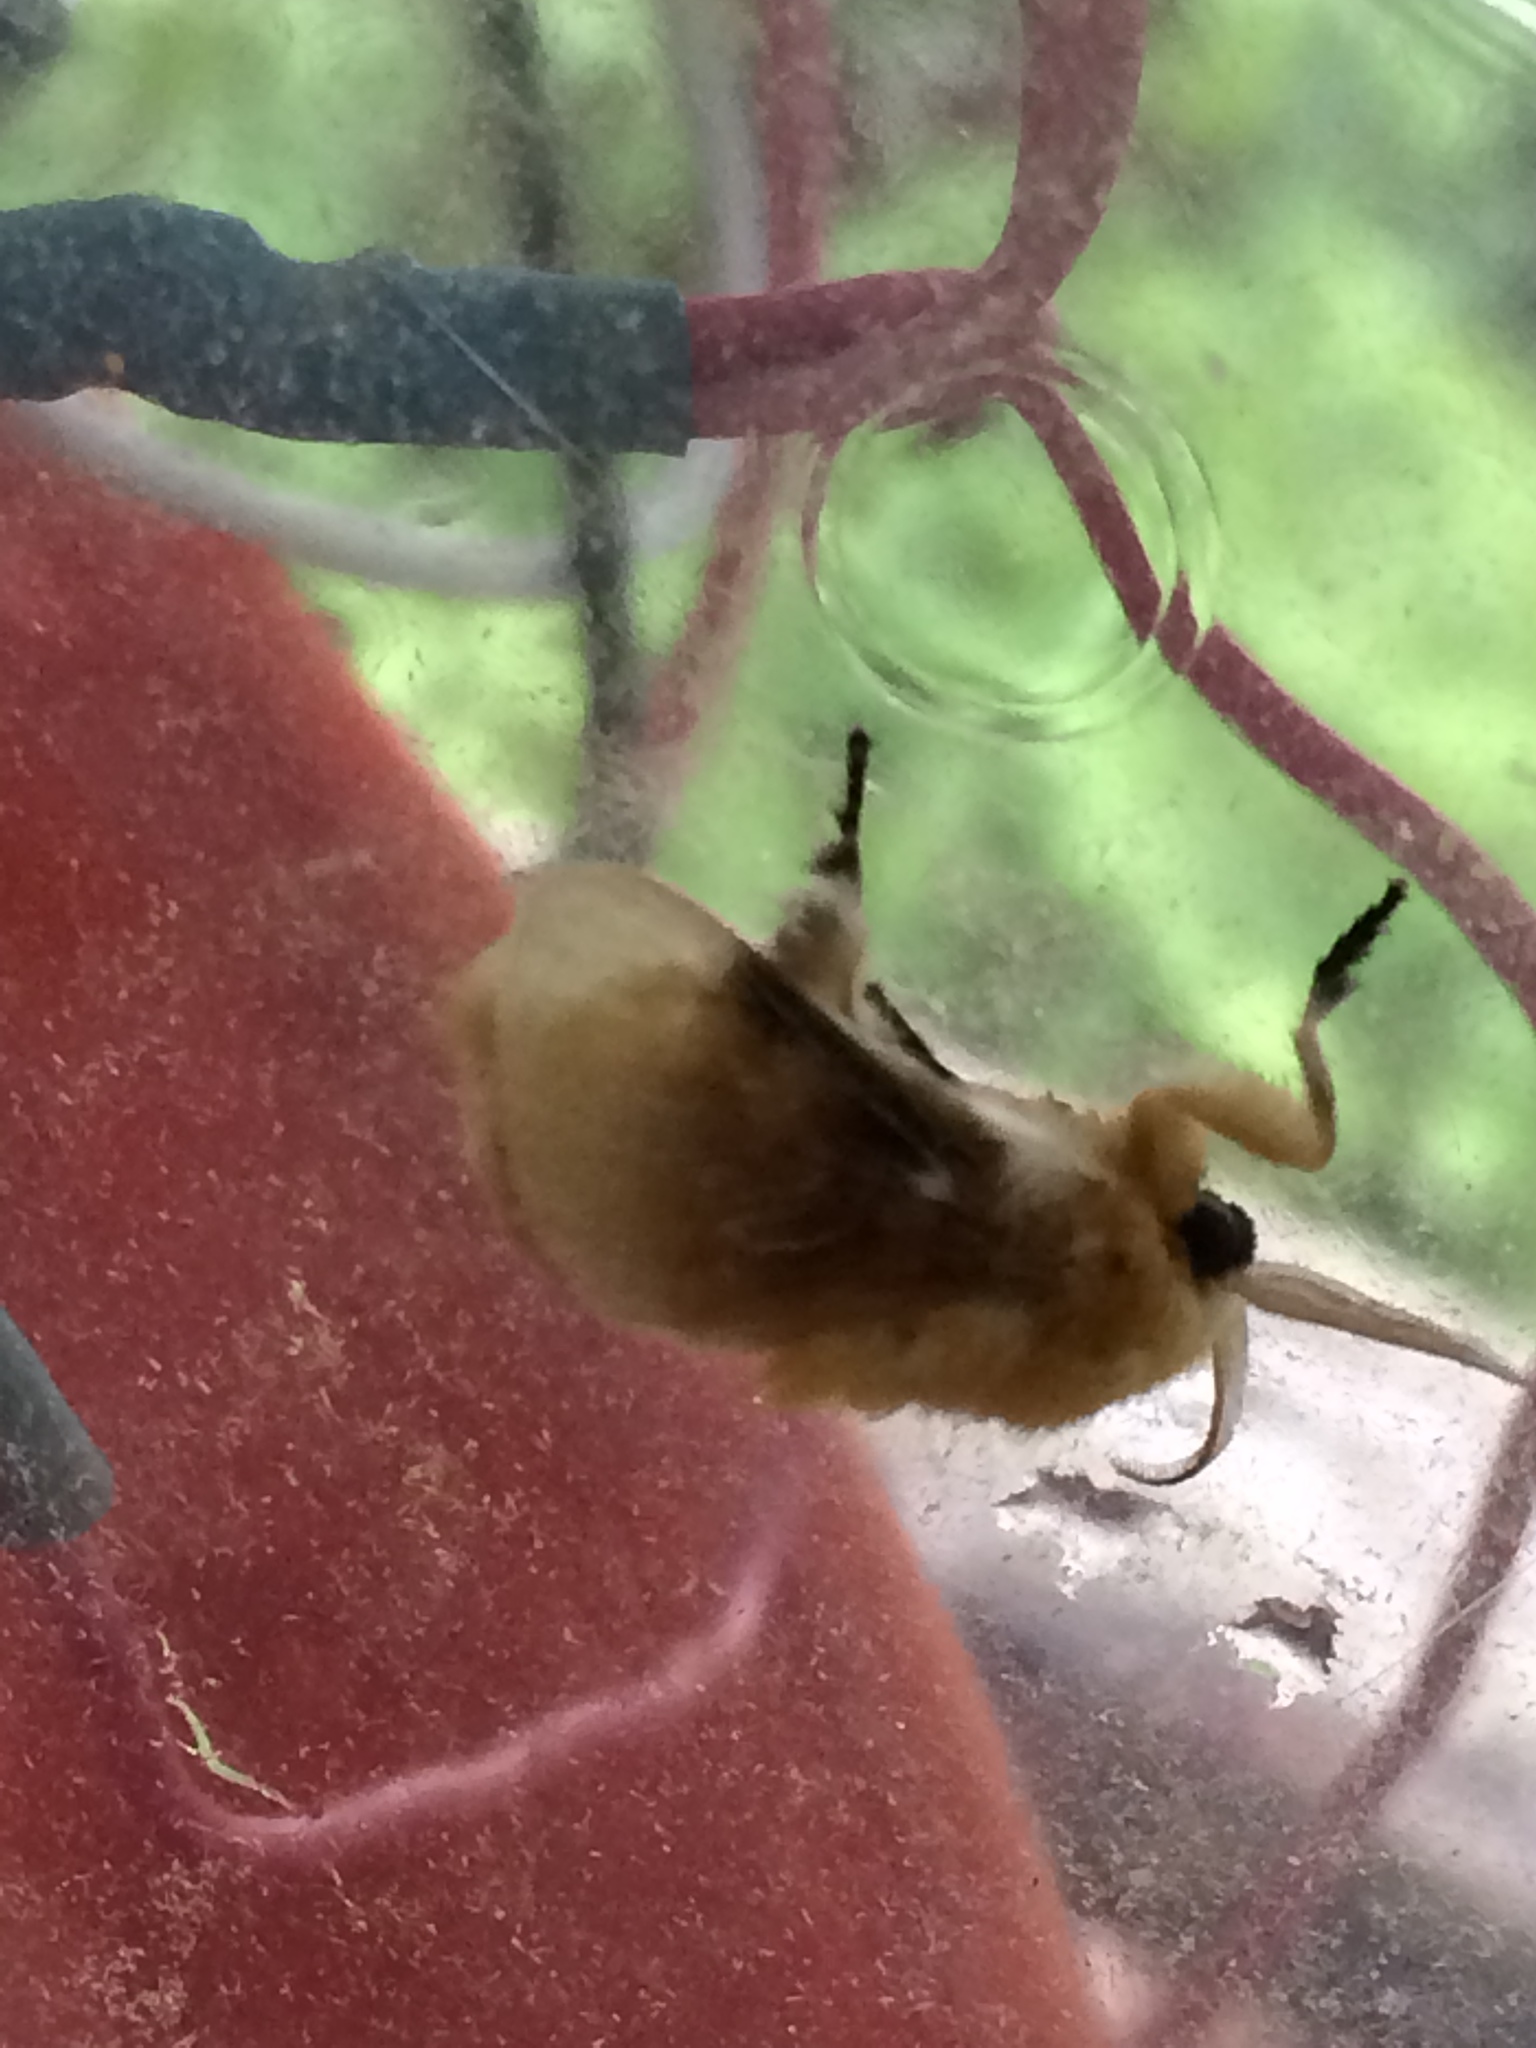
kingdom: Animalia
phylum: Arthropoda
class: Insecta
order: Lepidoptera
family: Megalopygidae
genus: Megalopyge
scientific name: Megalopyge opercularis
